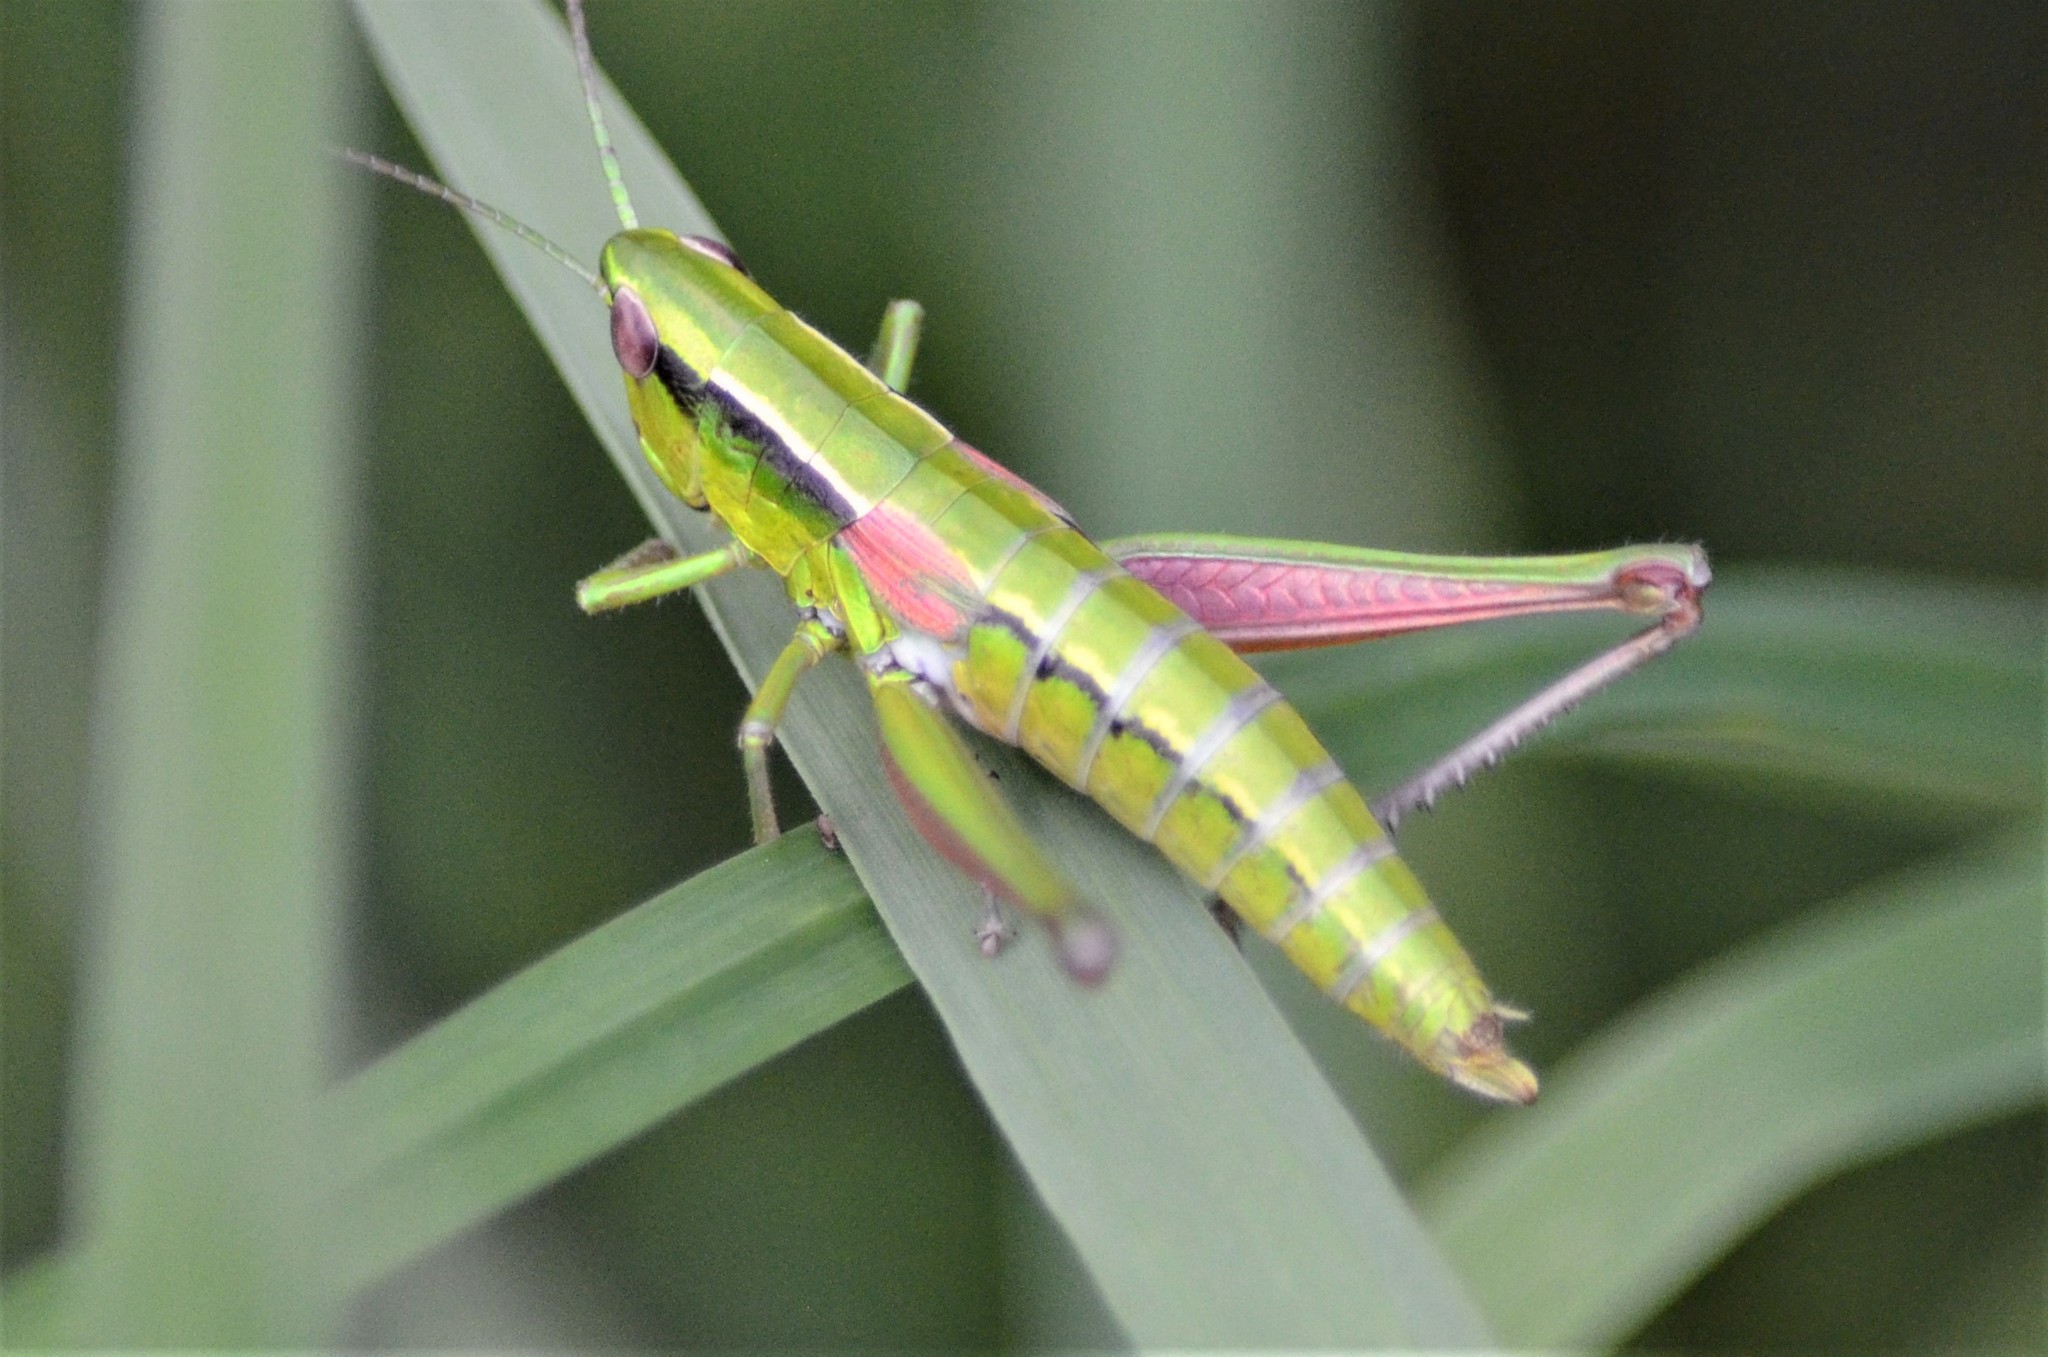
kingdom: Animalia
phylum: Arthropoda
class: Insecta
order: Orthoptera
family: Acrididae
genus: Euthystira
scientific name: Euthystira brachyptera
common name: Small gold grasshopper
